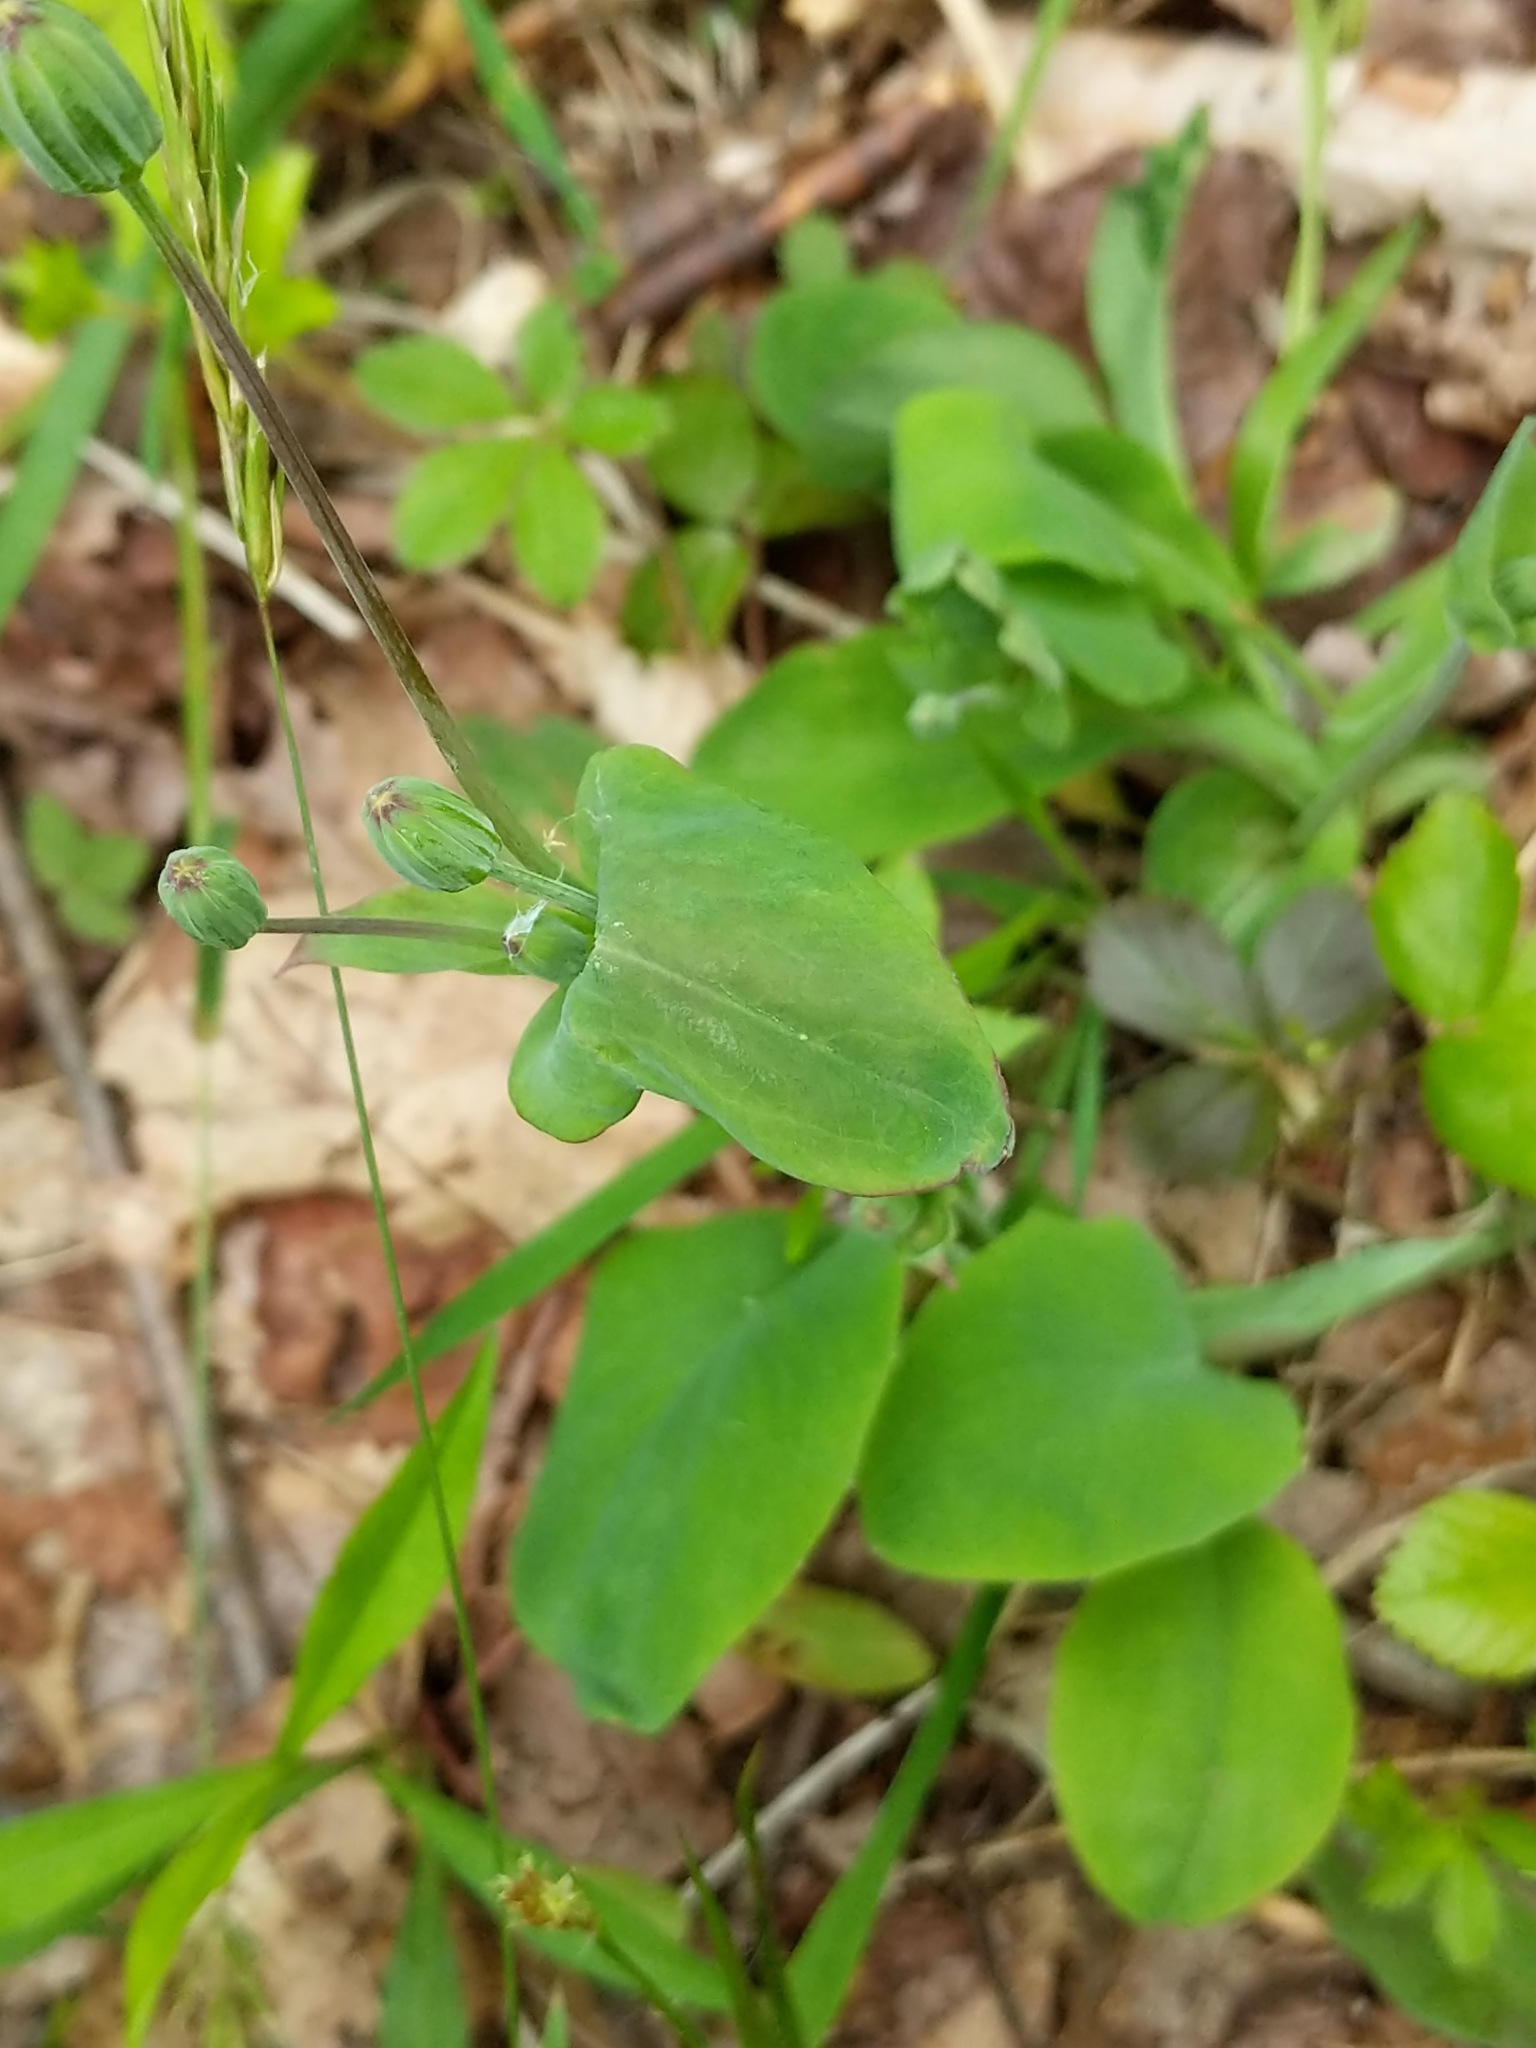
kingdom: Plantae
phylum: Tracheophyta
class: Magnoliopsida
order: Asterales
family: Asteraceae
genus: Krigia
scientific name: Krigia biflora
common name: Orange dwarf-dandelion
